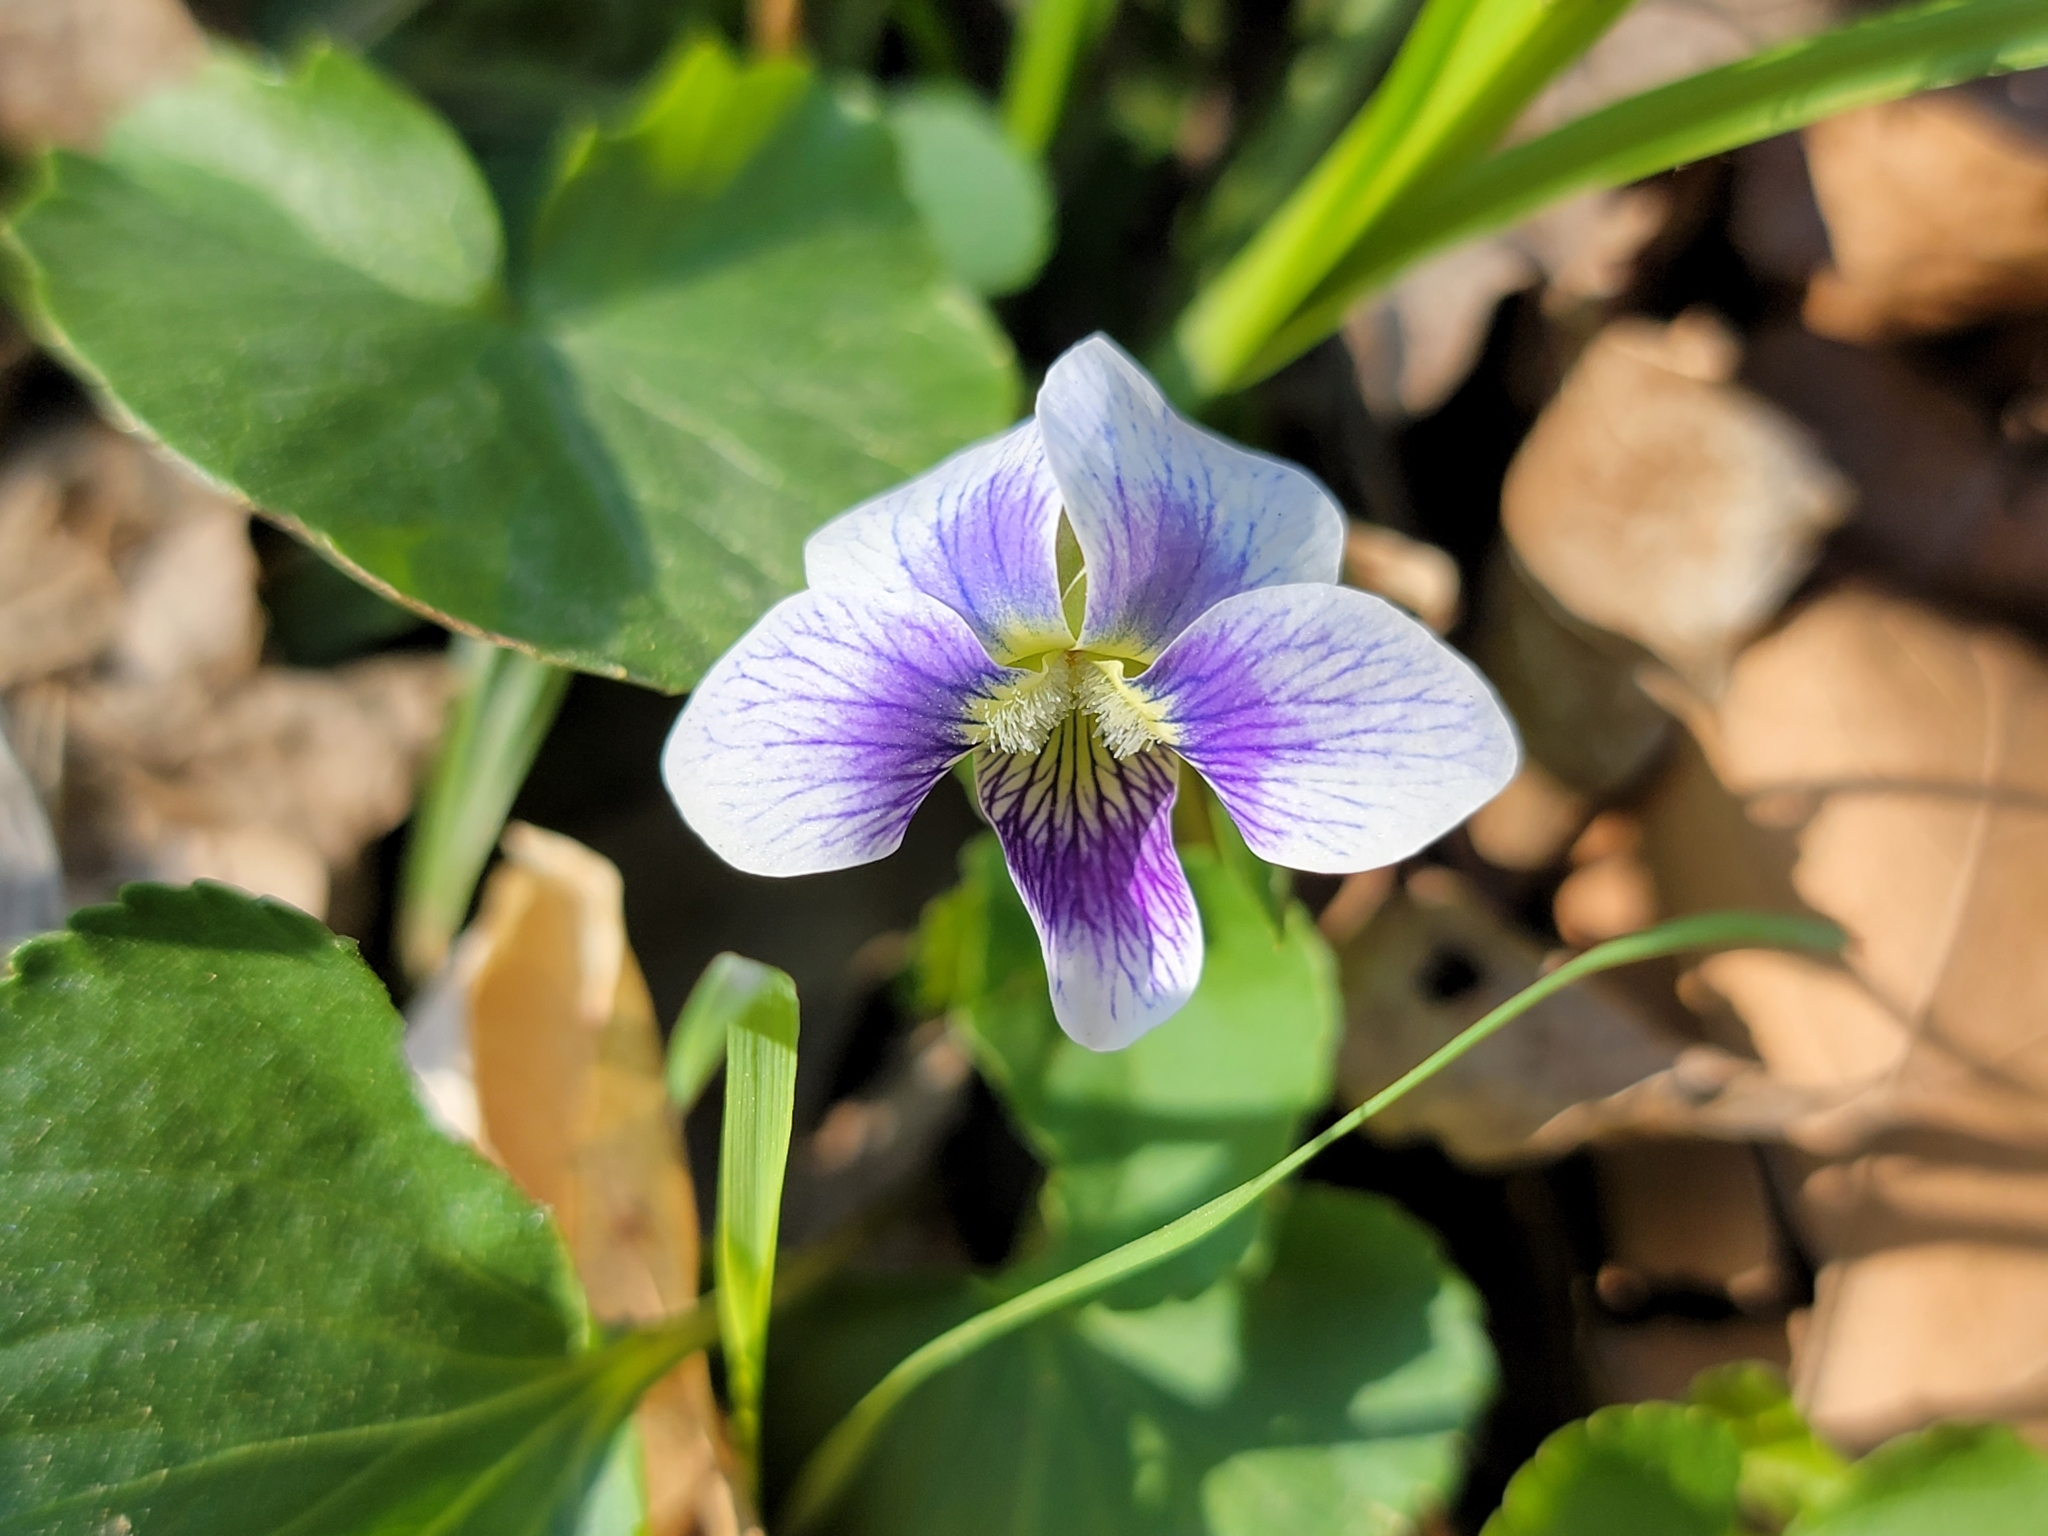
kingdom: Plantae
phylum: Tracheophyta
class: Magnoliopsida
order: Malpighiales
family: Violaceae
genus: Viola
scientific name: Viola sororia
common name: Dooryard violet
